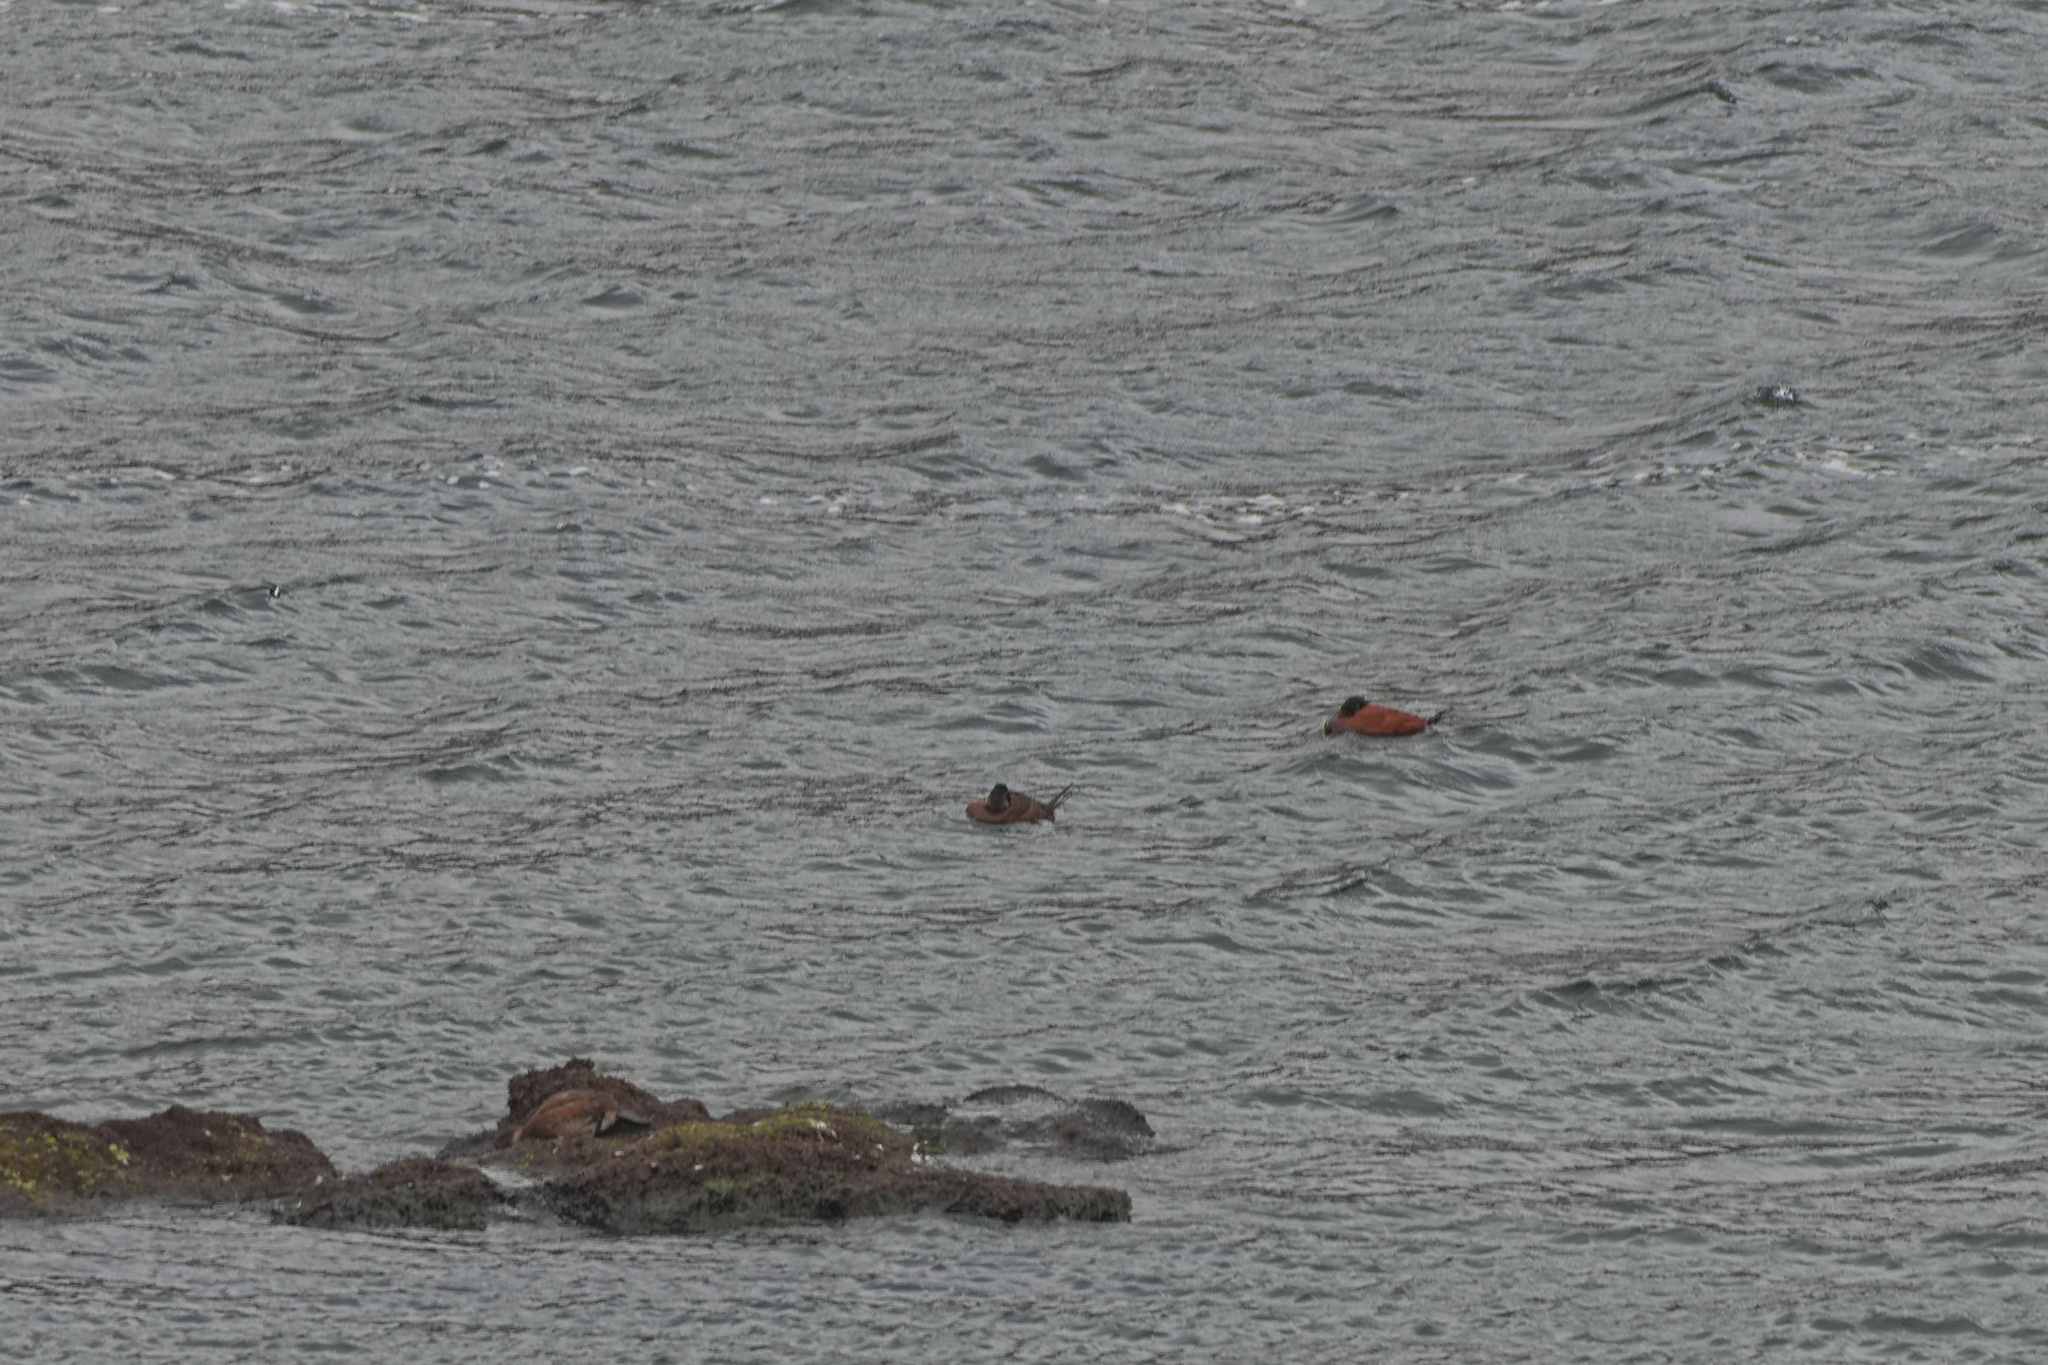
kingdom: Animalia
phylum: Chordata
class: Aves
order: Anseriformes
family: Anatidae
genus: Oxyura
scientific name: Oxyura ferruginea
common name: Andean duck
